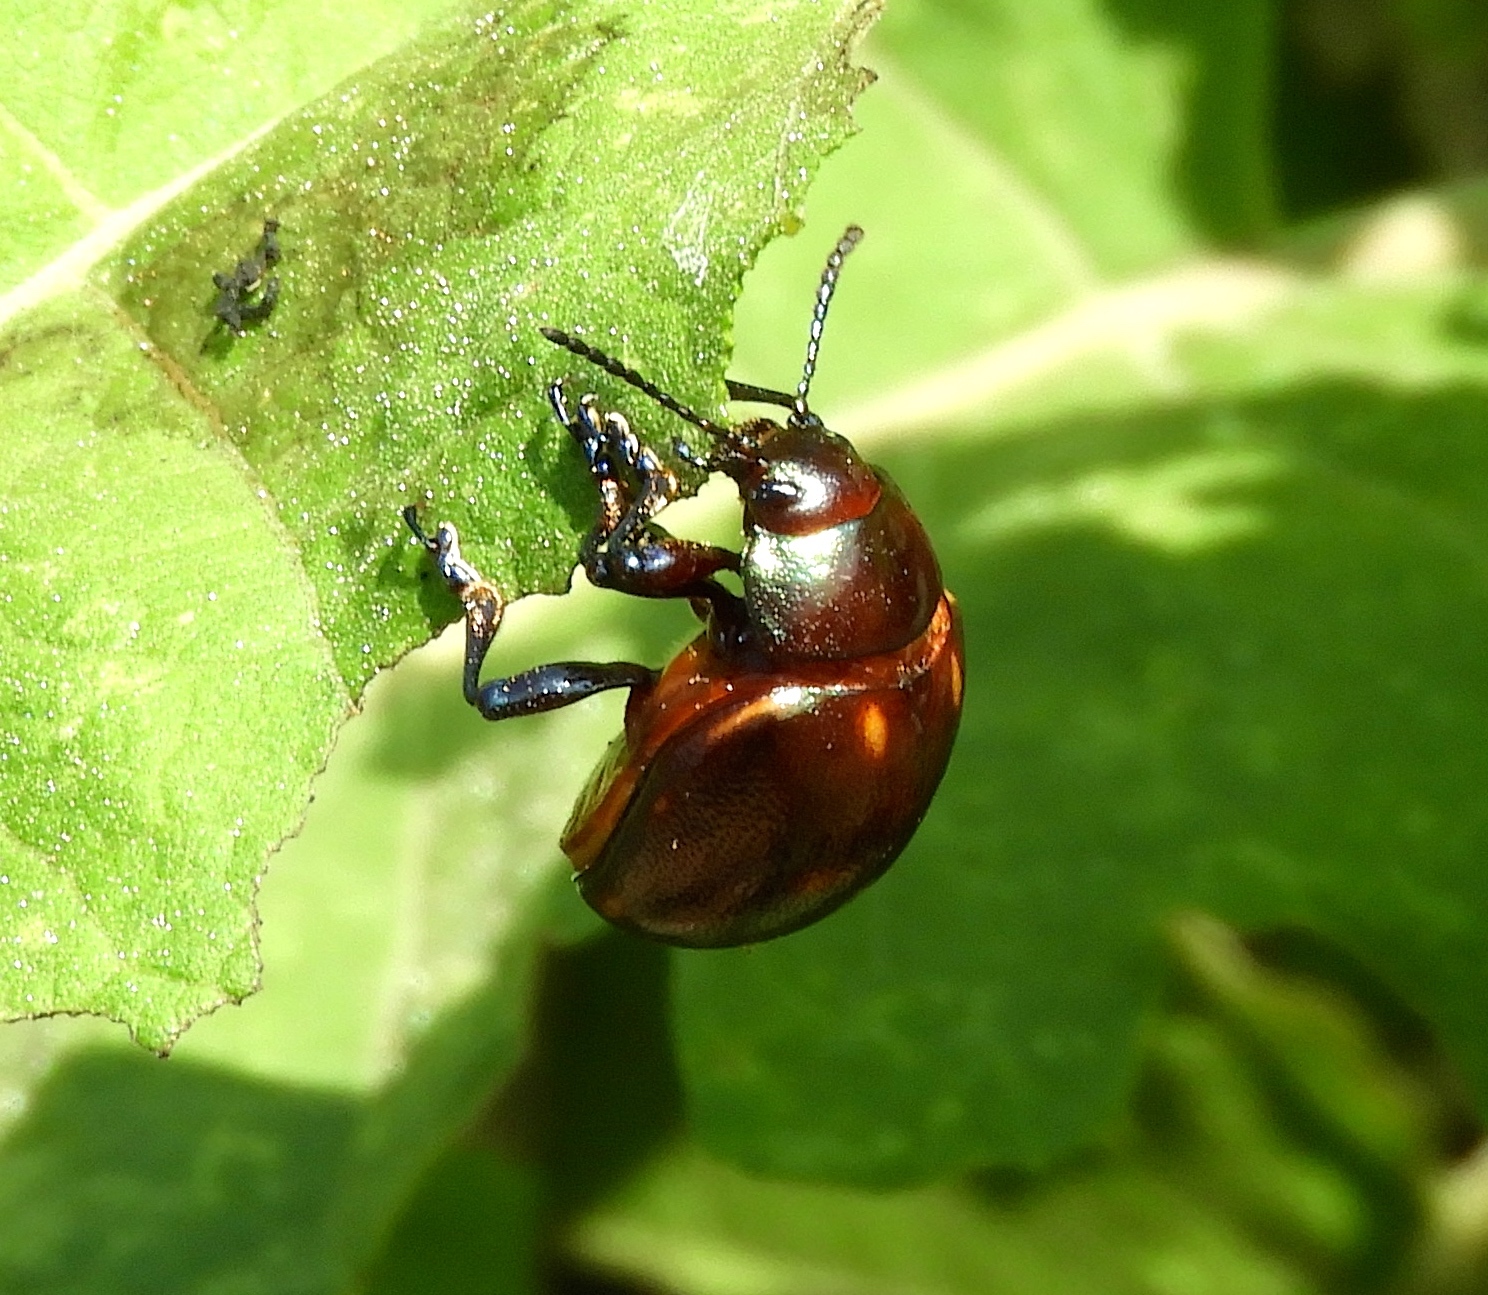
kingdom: Animalia
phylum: Arthropoda
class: Insecta
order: Coleoptera
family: Chrysomelidae
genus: Leptinotarsa
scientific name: Leptinotarsa behrensi
